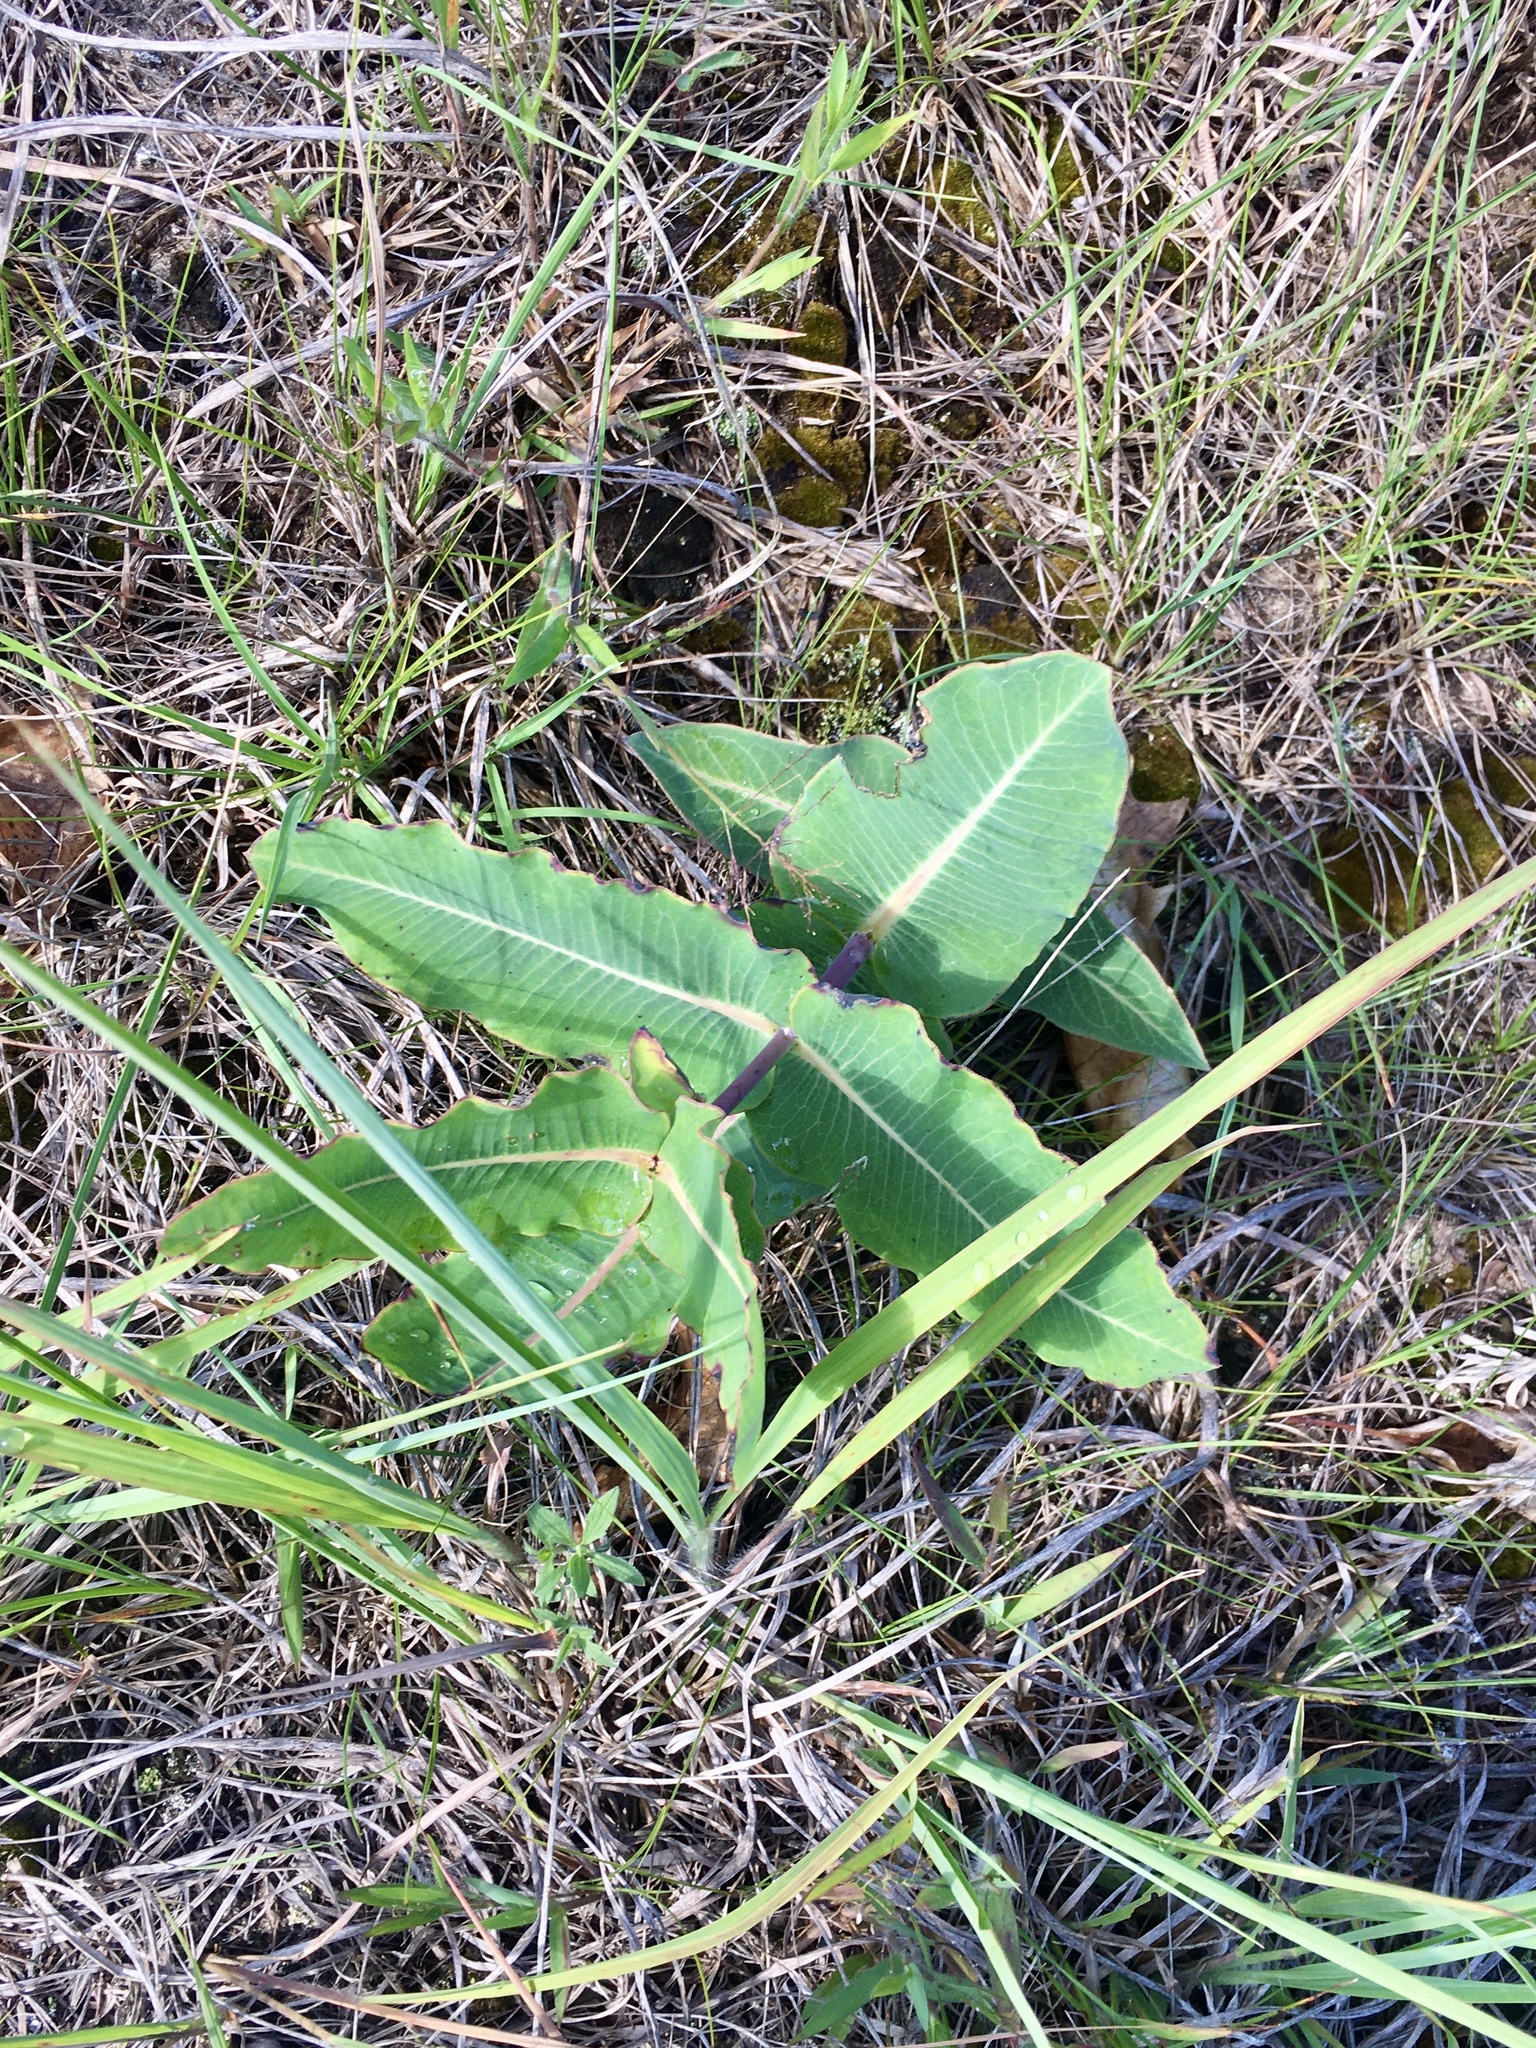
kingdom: Plantae
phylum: Tracheophyta
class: Magnoliopsida
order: Gentianales
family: Apocynaceae
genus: Asclepias
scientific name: Asclepias amplexicaulis
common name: Blunt-leaf milkweed
